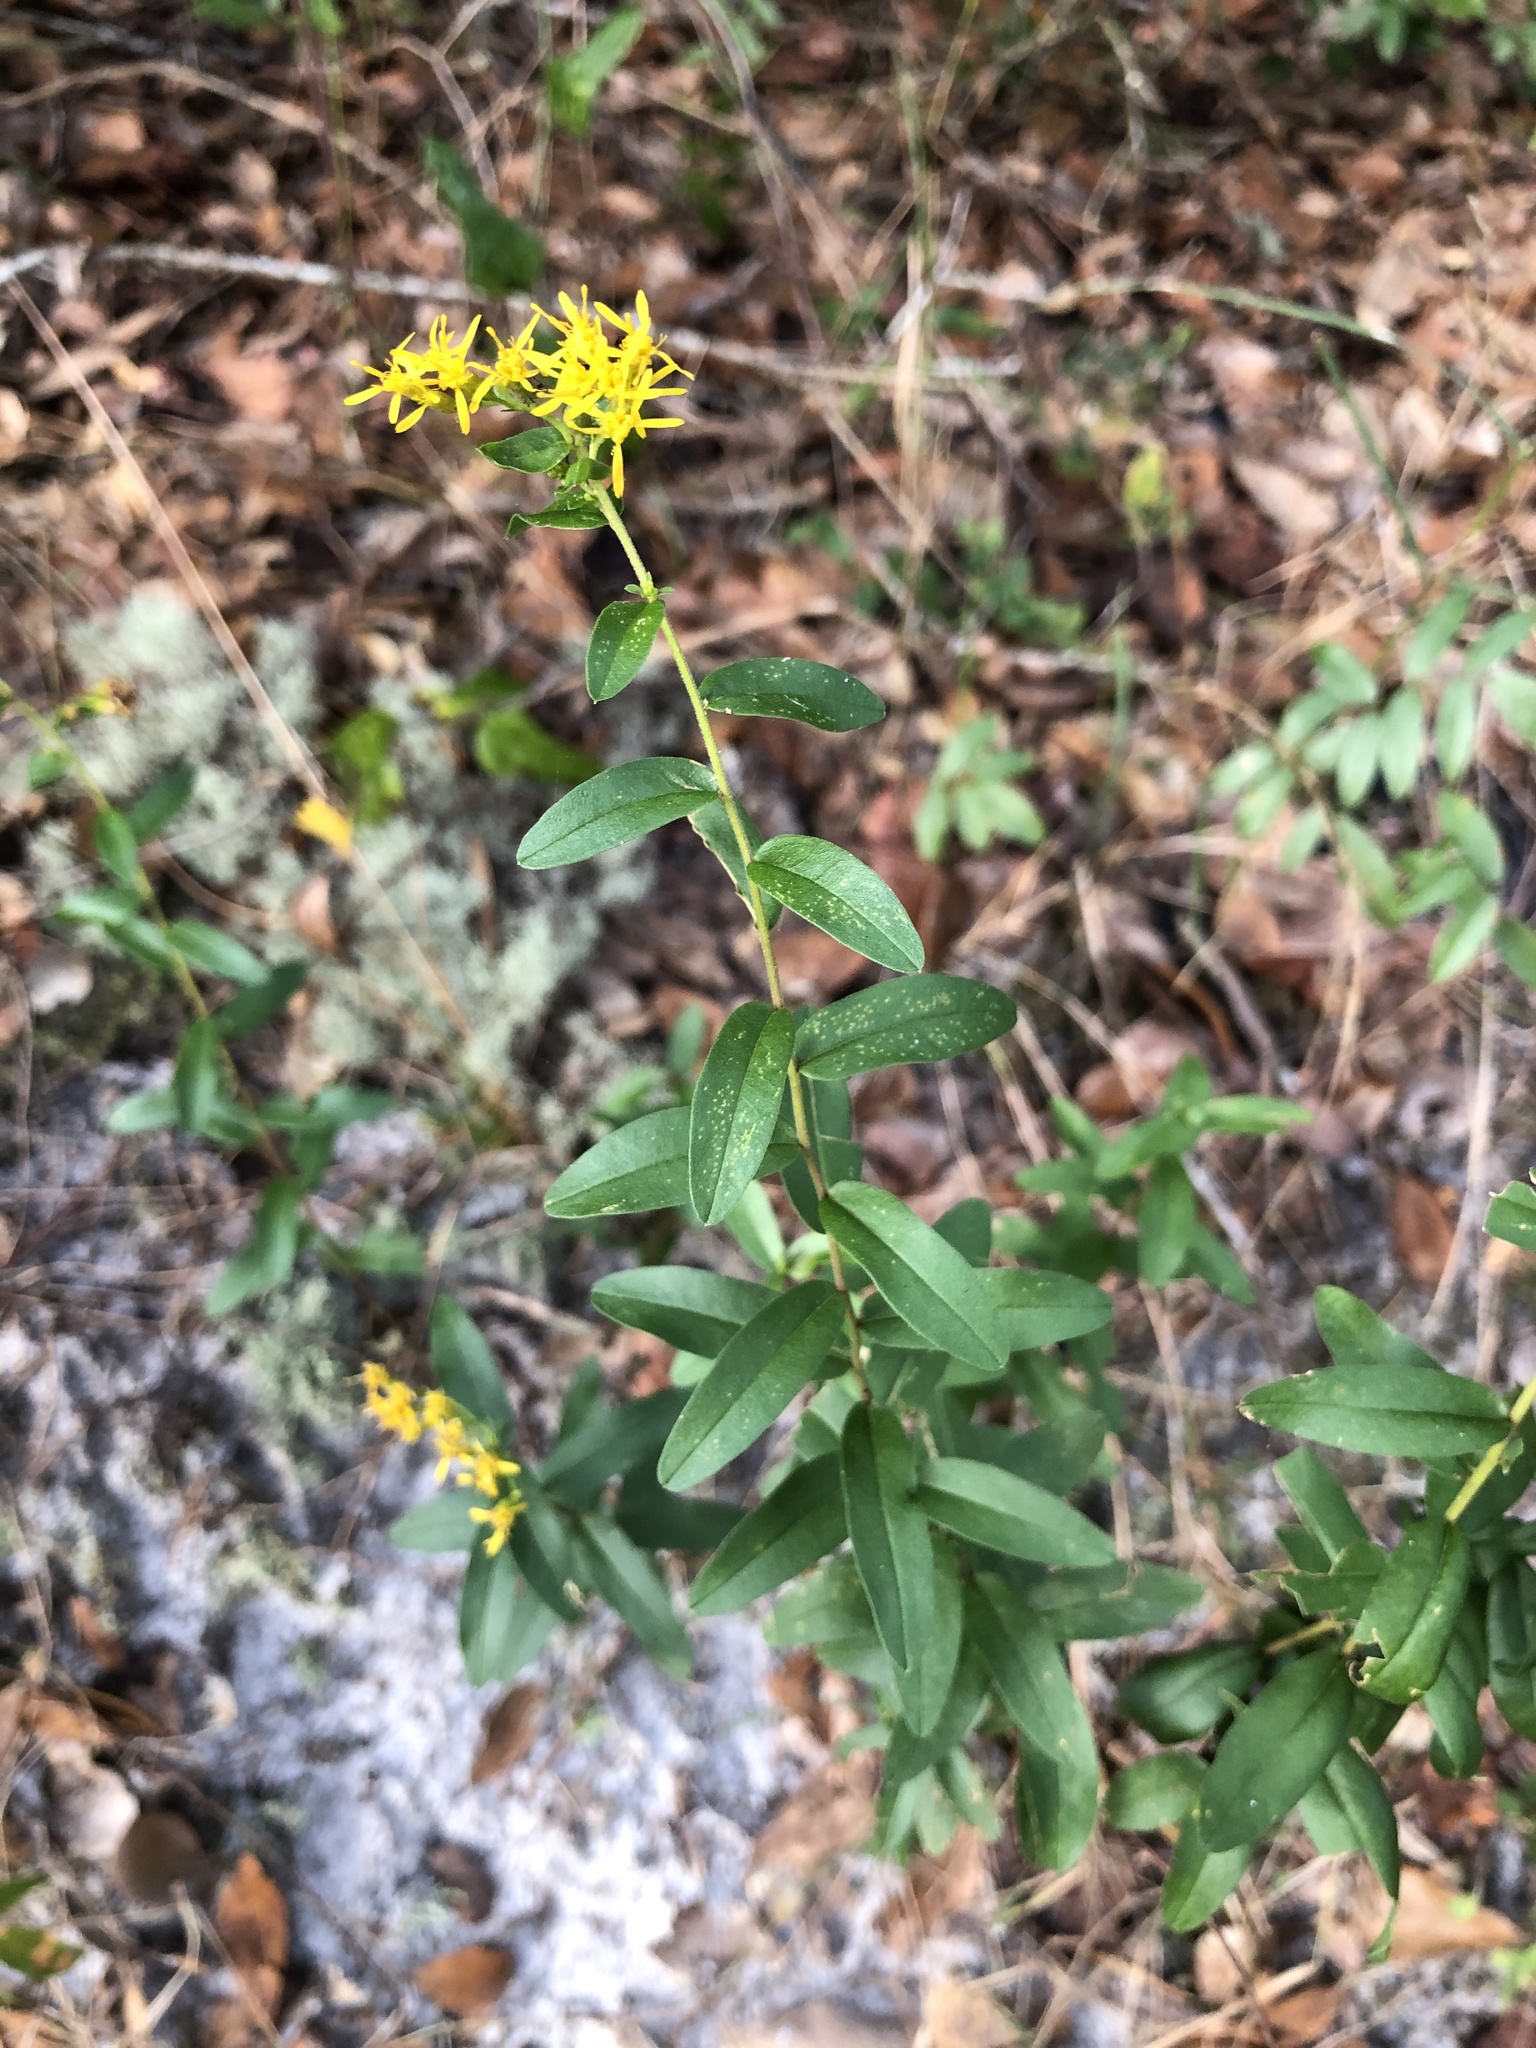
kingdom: Plantae
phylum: Tracheophyta
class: Magnoliopsida
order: Asterales
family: Asteraceae
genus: Solidago
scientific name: Solidago chapmanii
